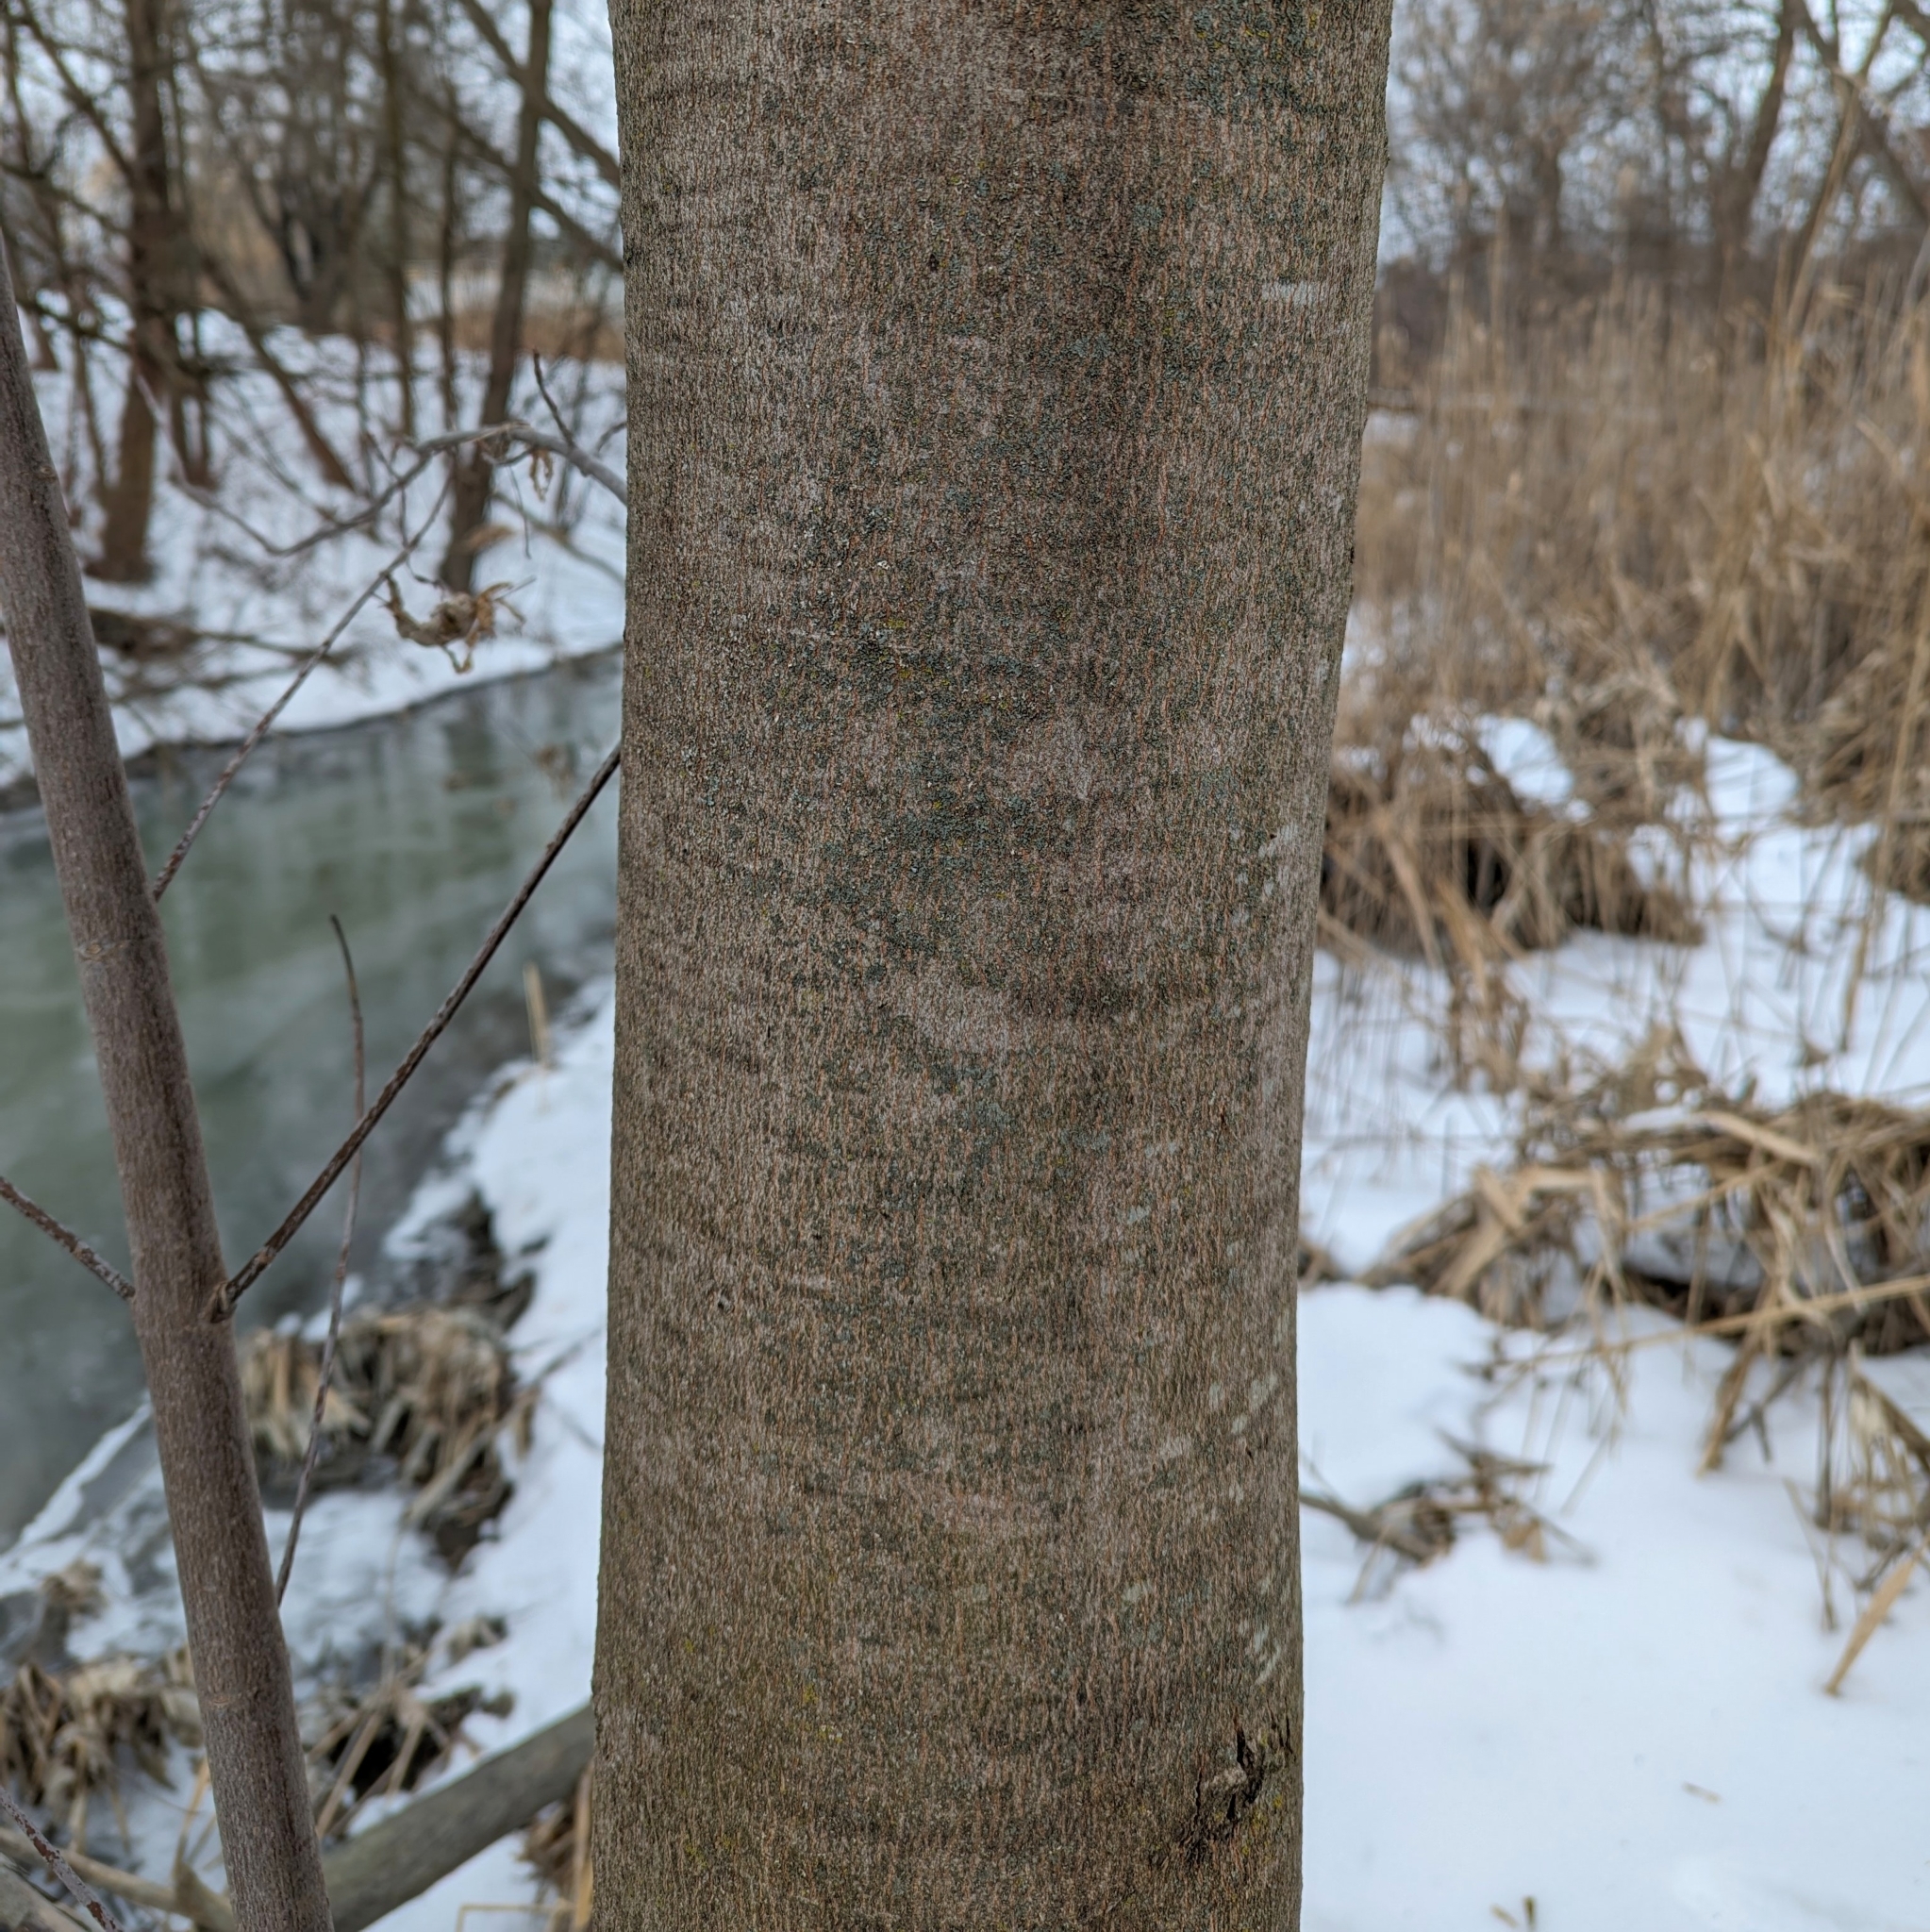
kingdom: Plantae
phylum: Tracheophyta
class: Magnoliopsida
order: Gentianales
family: Rubiaceae
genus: Rubia
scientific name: Rubia
